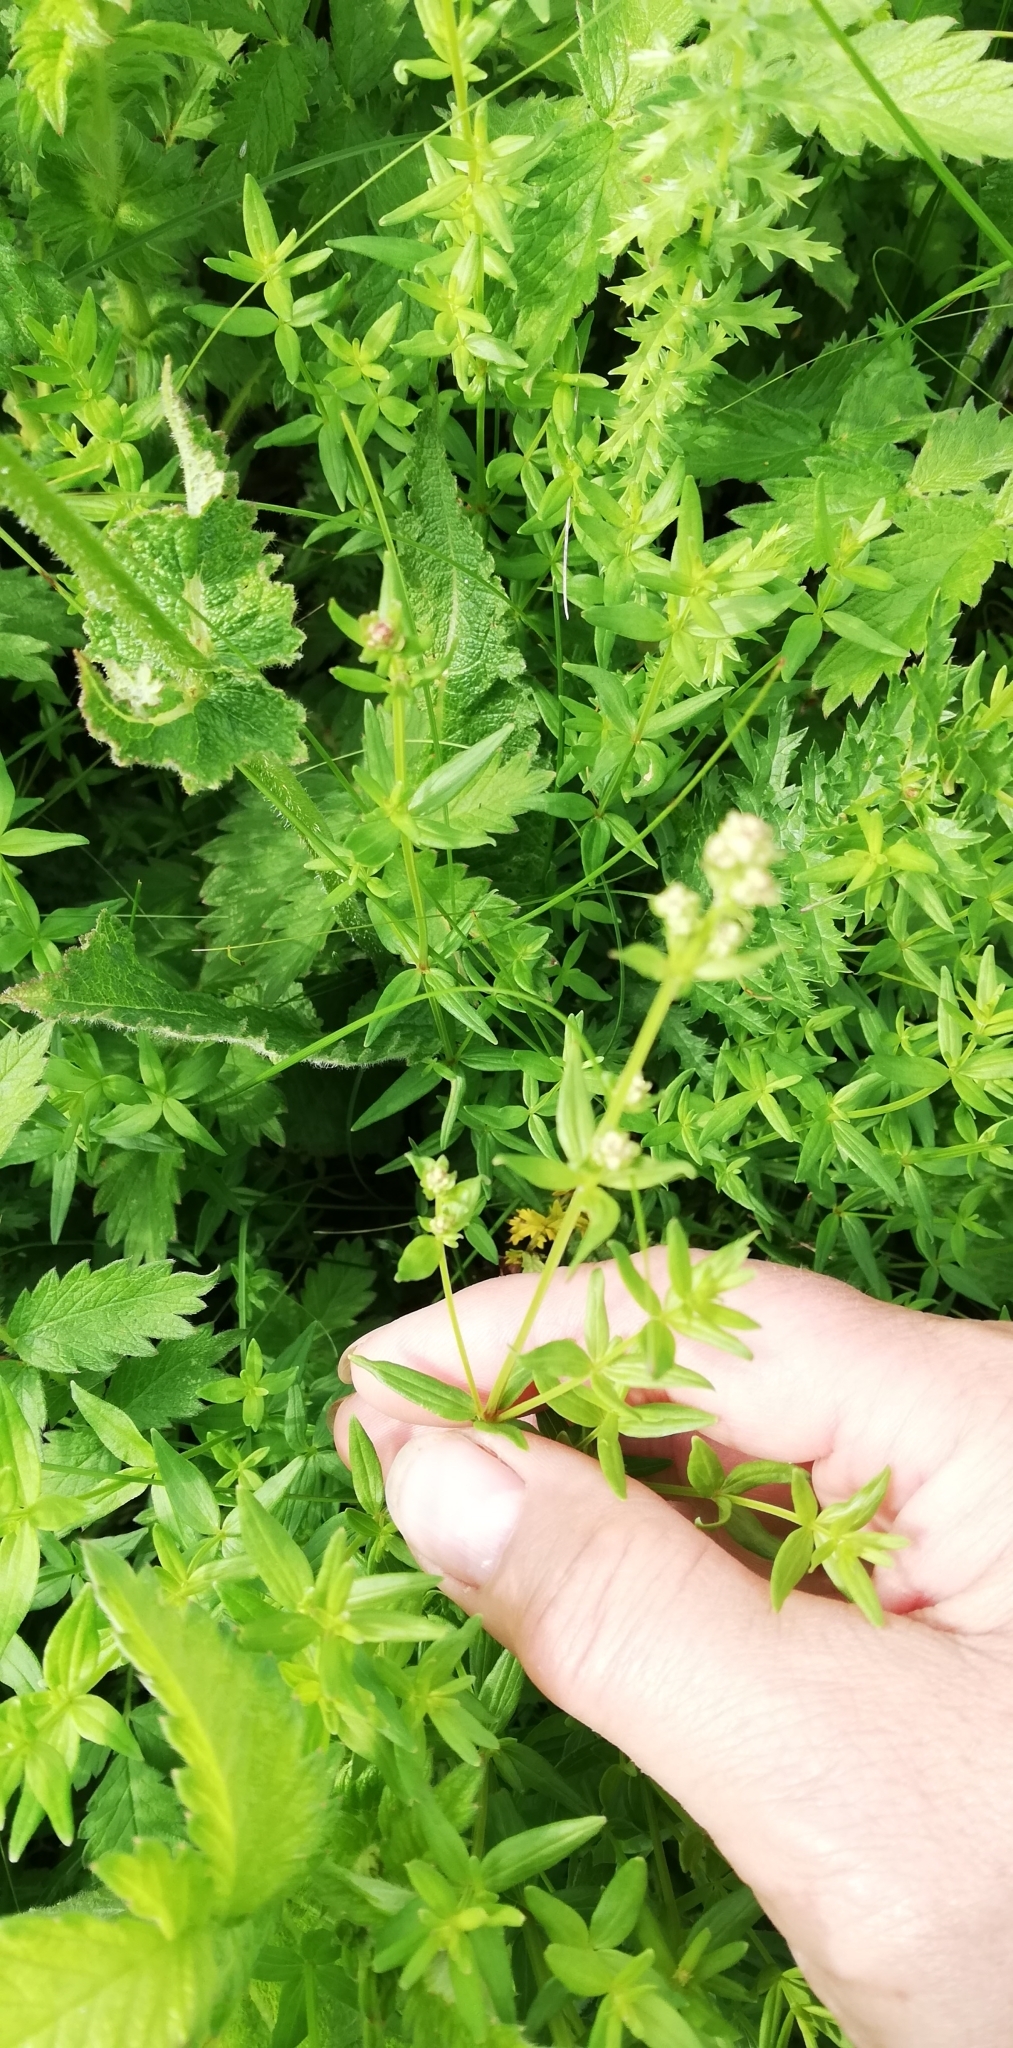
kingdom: Plantae
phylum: Tracheophyta
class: Magnoliopsida
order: Gentianales
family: Rubiaceae
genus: Galium
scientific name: Galium boreale
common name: Northern bedstraw
